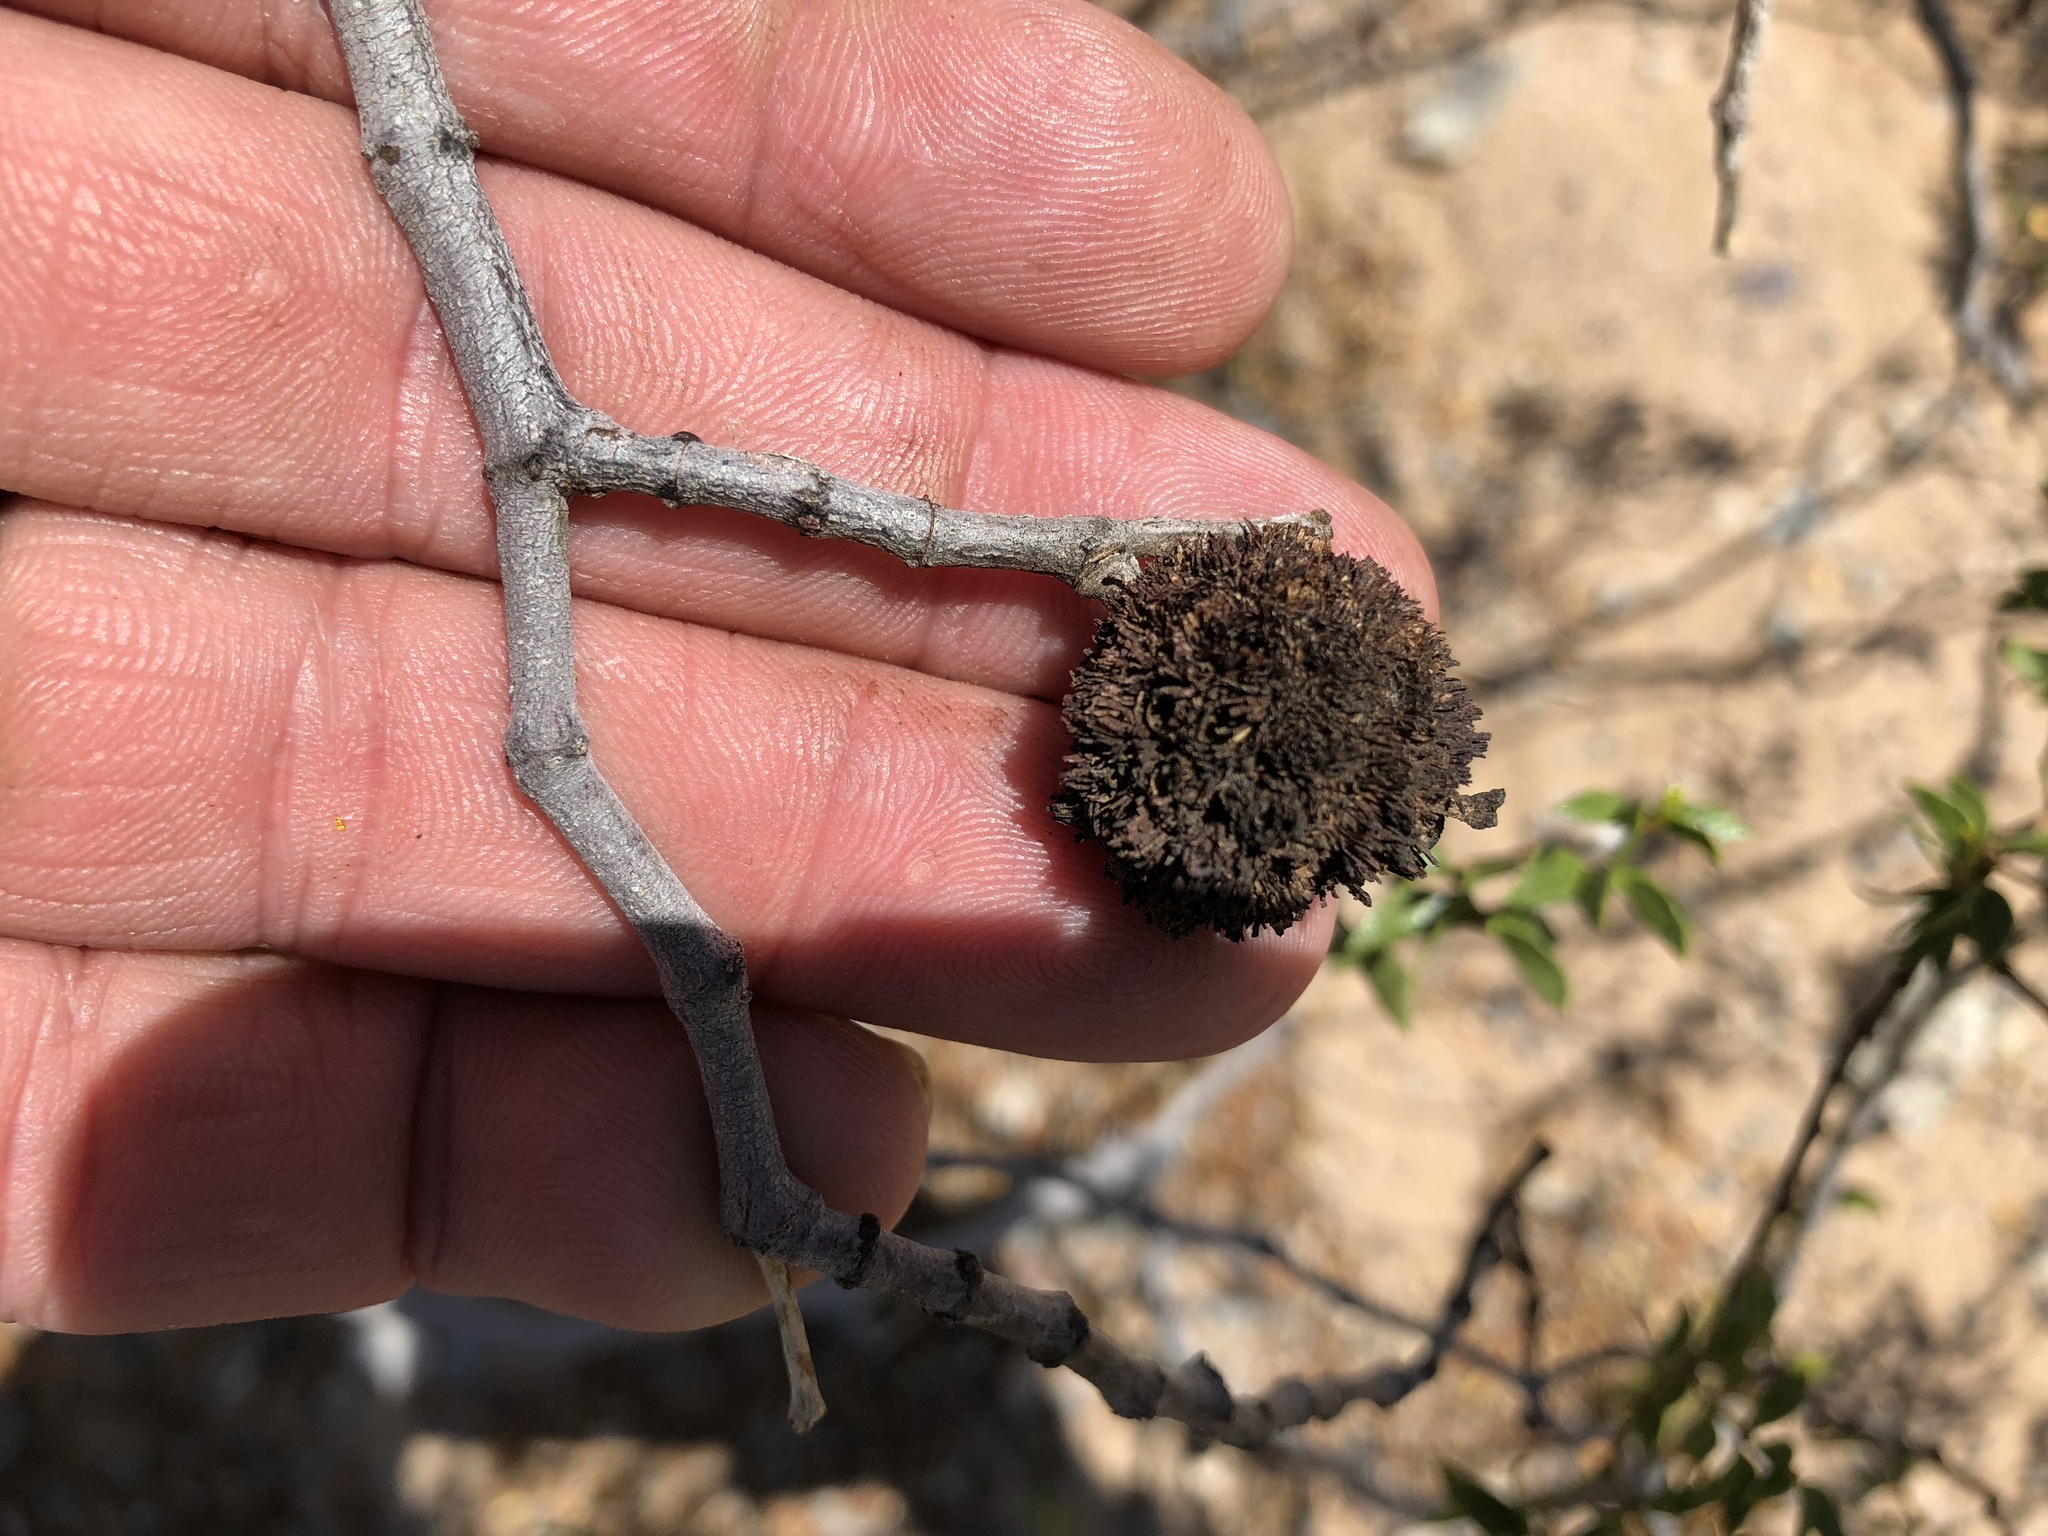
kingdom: Animalia
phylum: Arthropoda
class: Insecta
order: Diptera
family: Cecidomyiidae
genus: Asphondylia
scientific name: Asphondylia auripila
